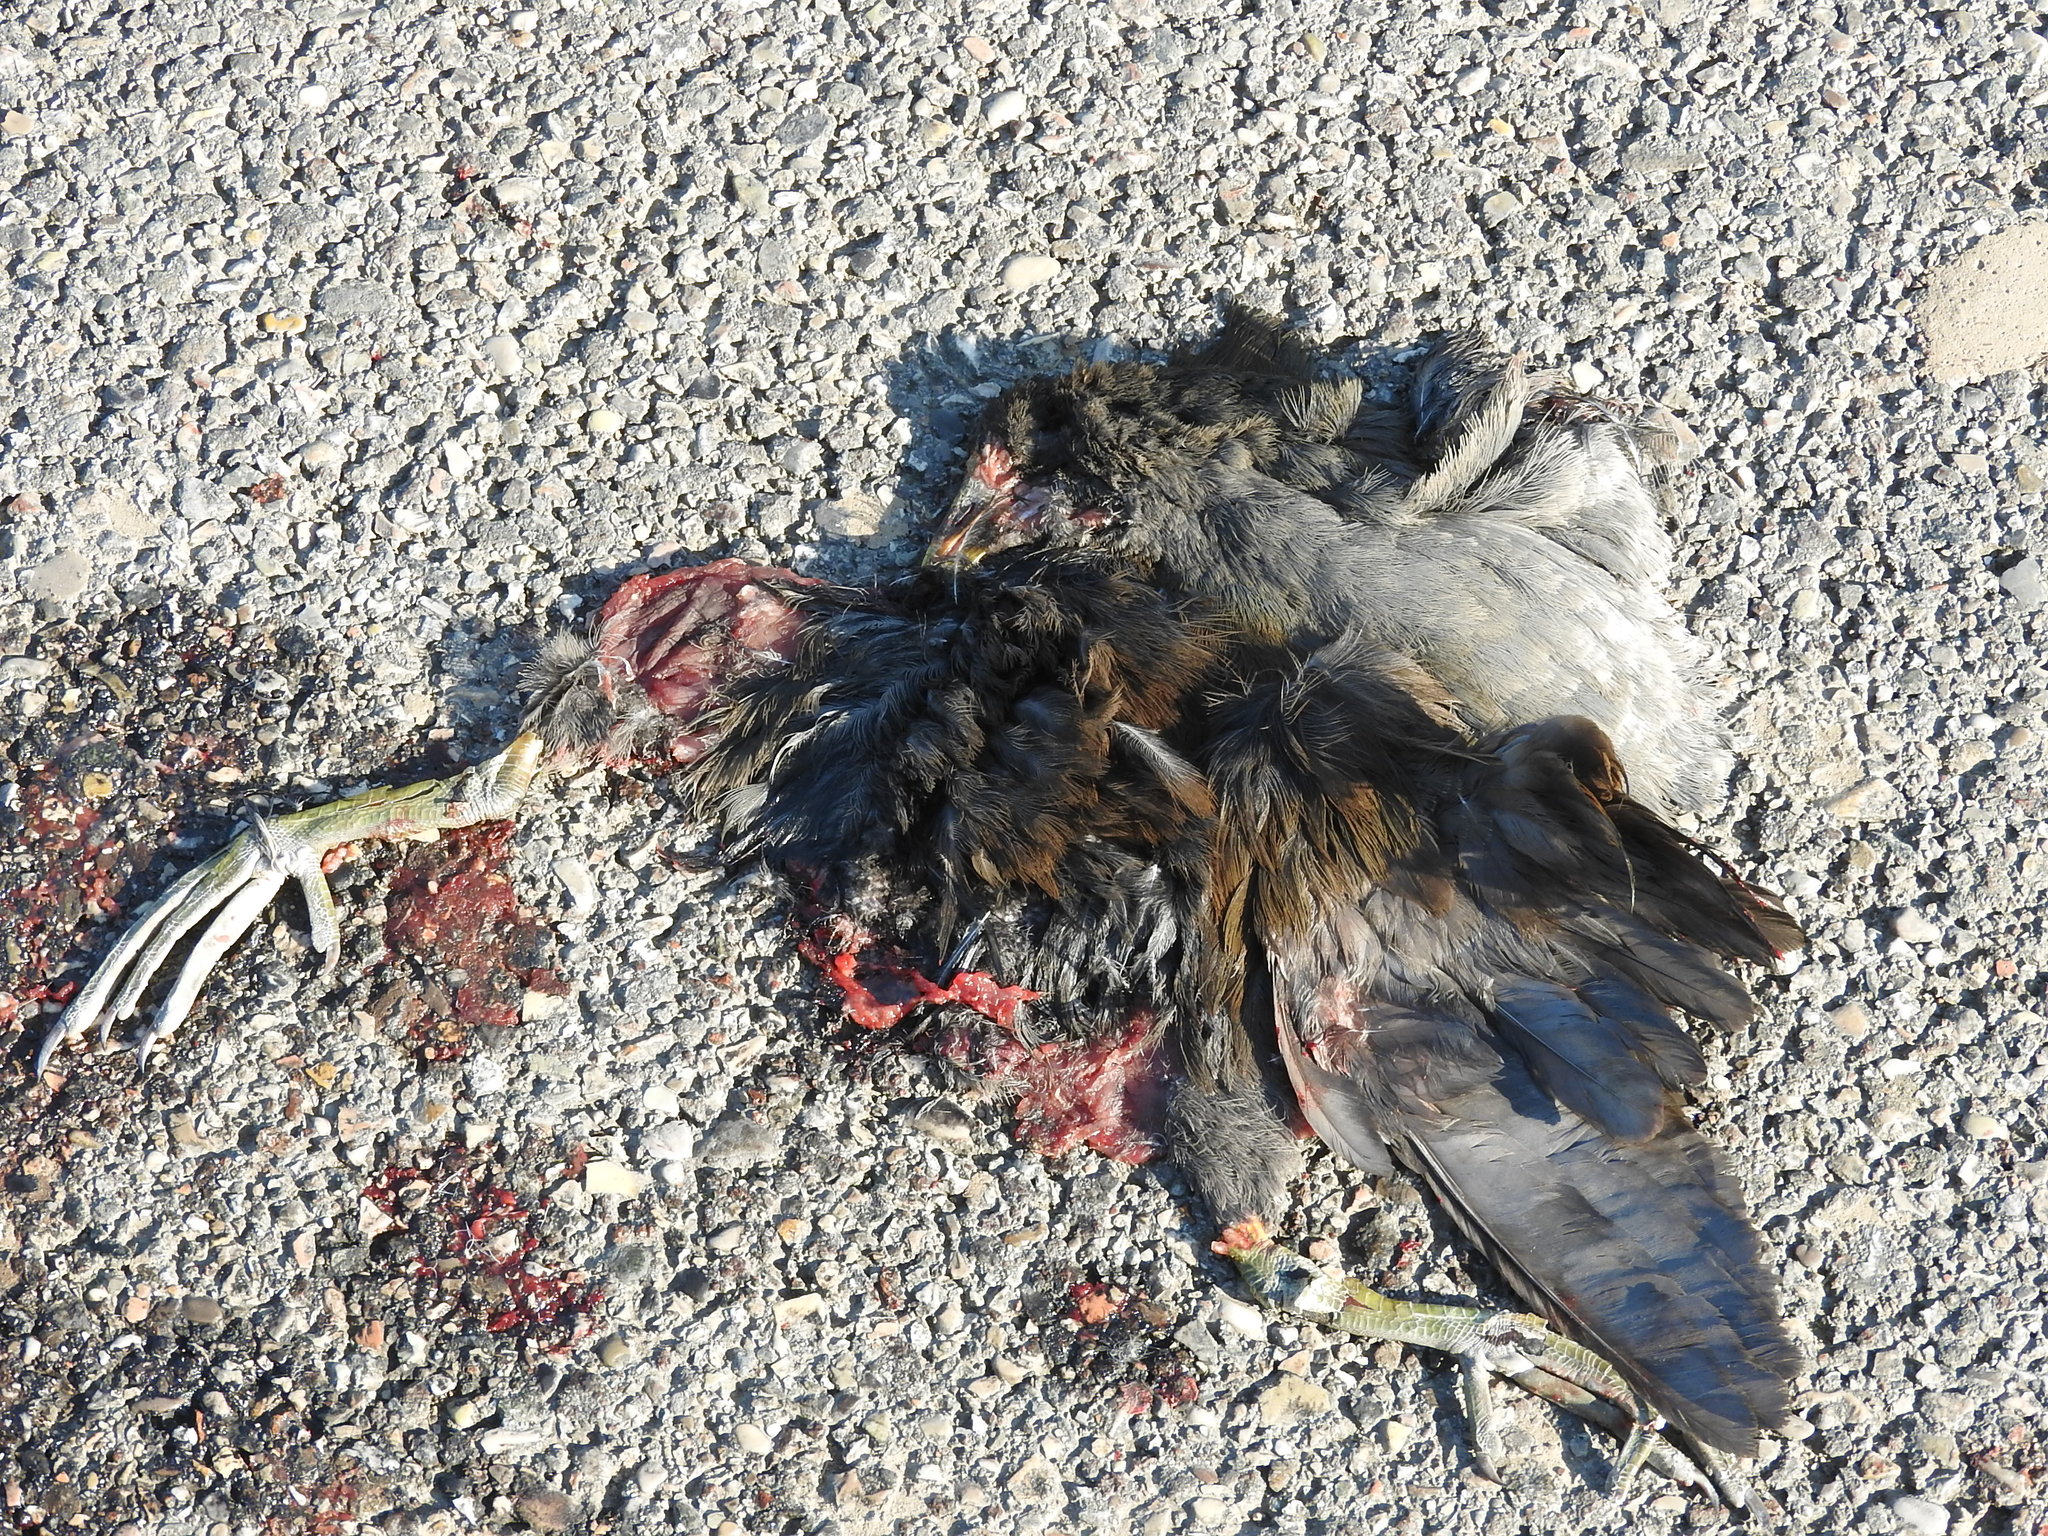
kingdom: Animalia
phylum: Chordata
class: Aves
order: Gruiformes
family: Rallidae
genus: Gallinula
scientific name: Gallinula chloropus
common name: Common moorhen
